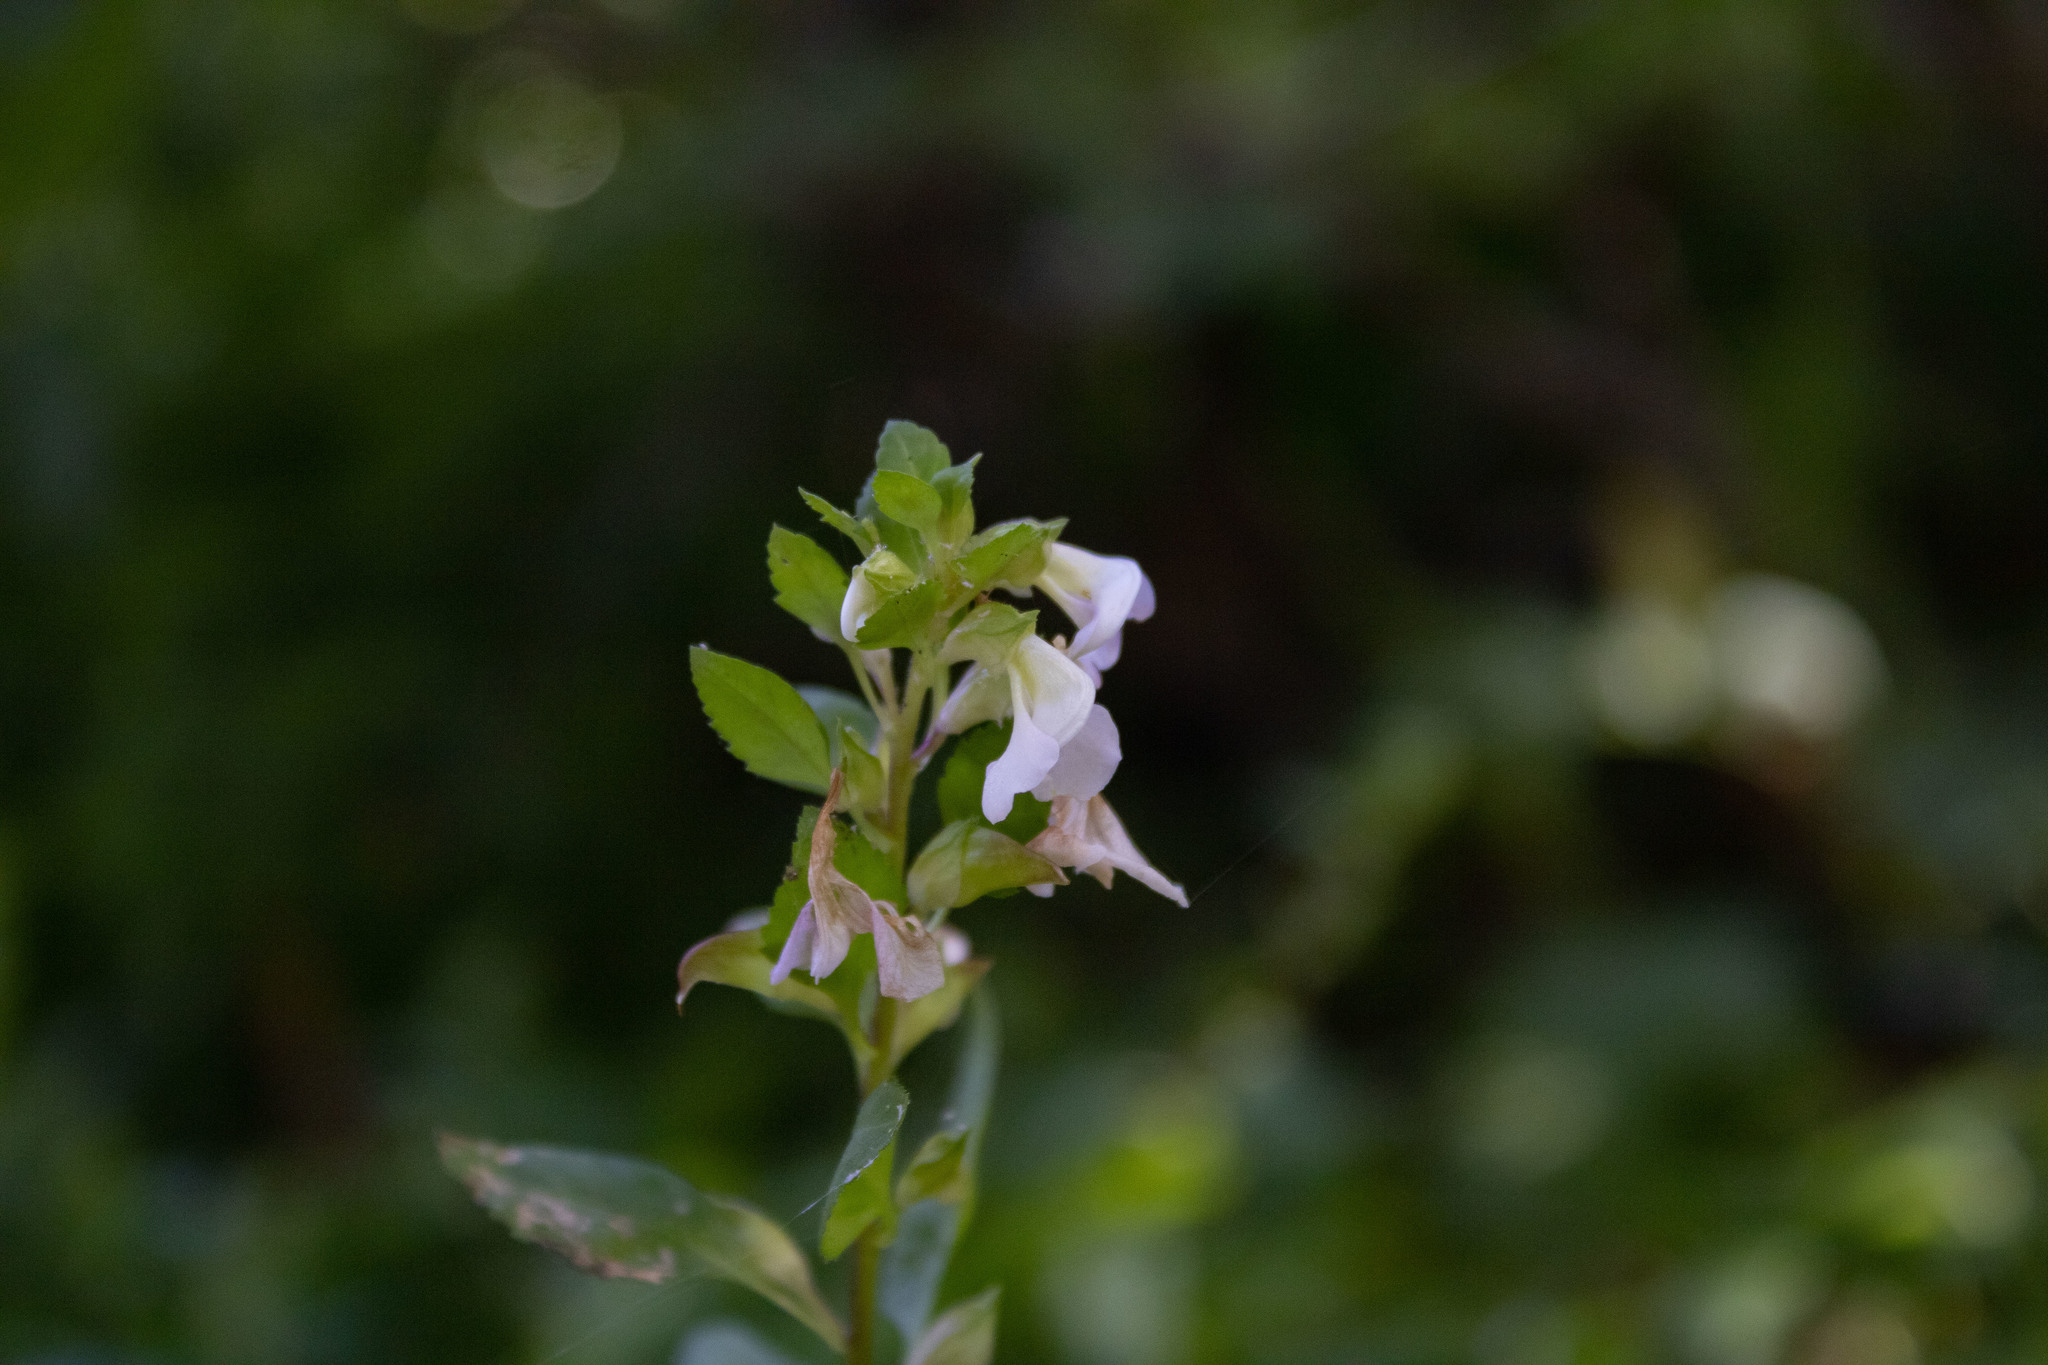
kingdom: Plantae
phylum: Tracheophyta
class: Magnoliopsida
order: Lamiales
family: Orobanchaceae
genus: Pedicularis
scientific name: Pedicularis racemosa
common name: Leafy lousewort
